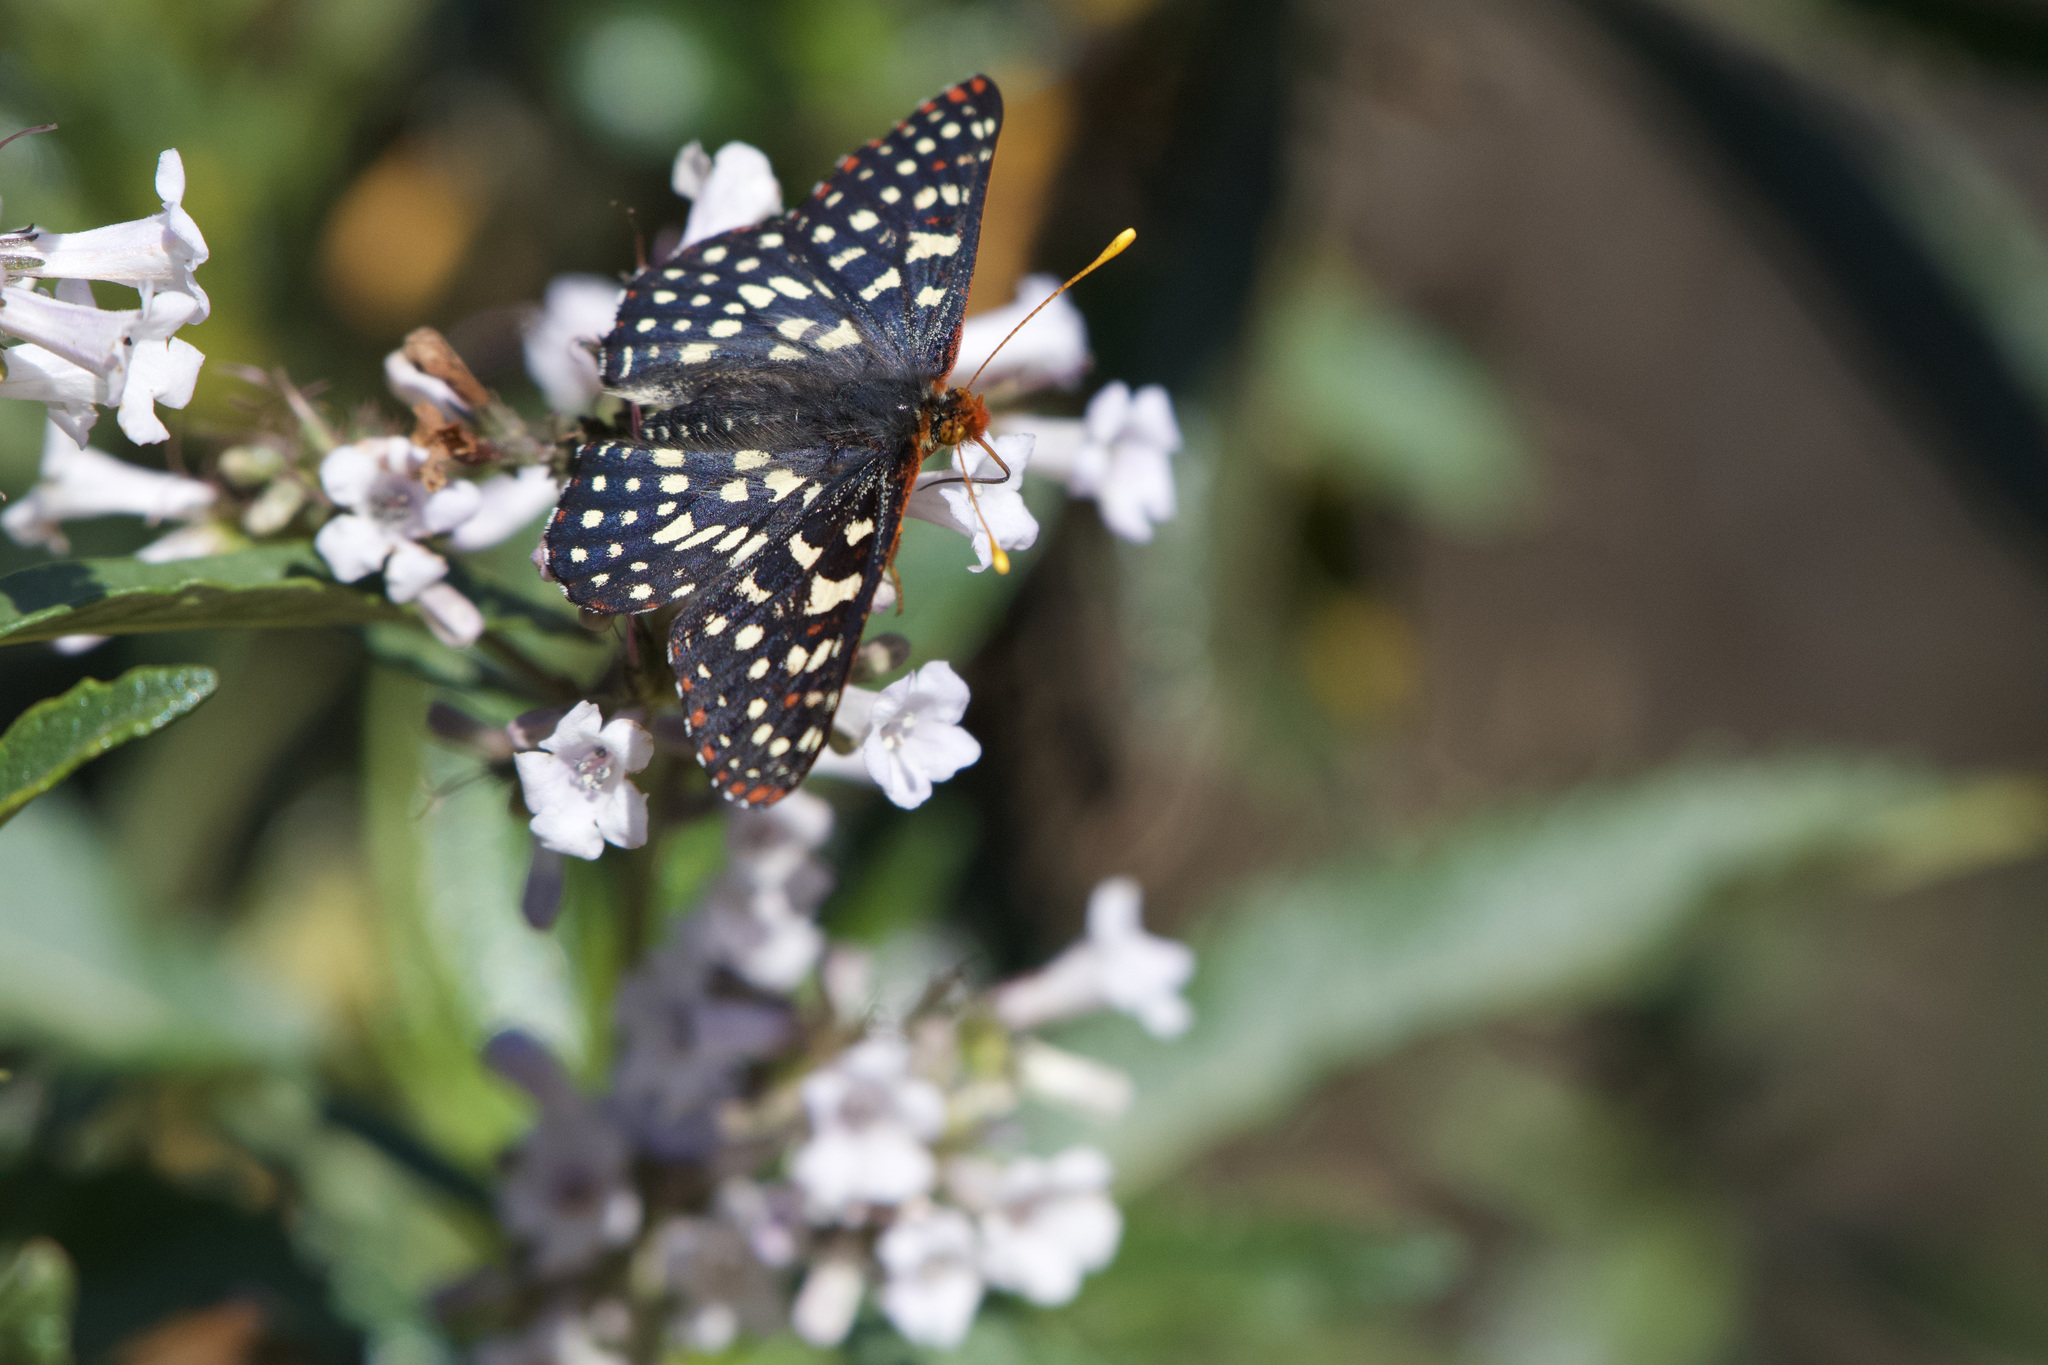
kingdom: Animalia
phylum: Arthropoda
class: Insecta
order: Lepidoptera
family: Nymphalidae
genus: Occidryas
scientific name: Occidryas chalcedona
